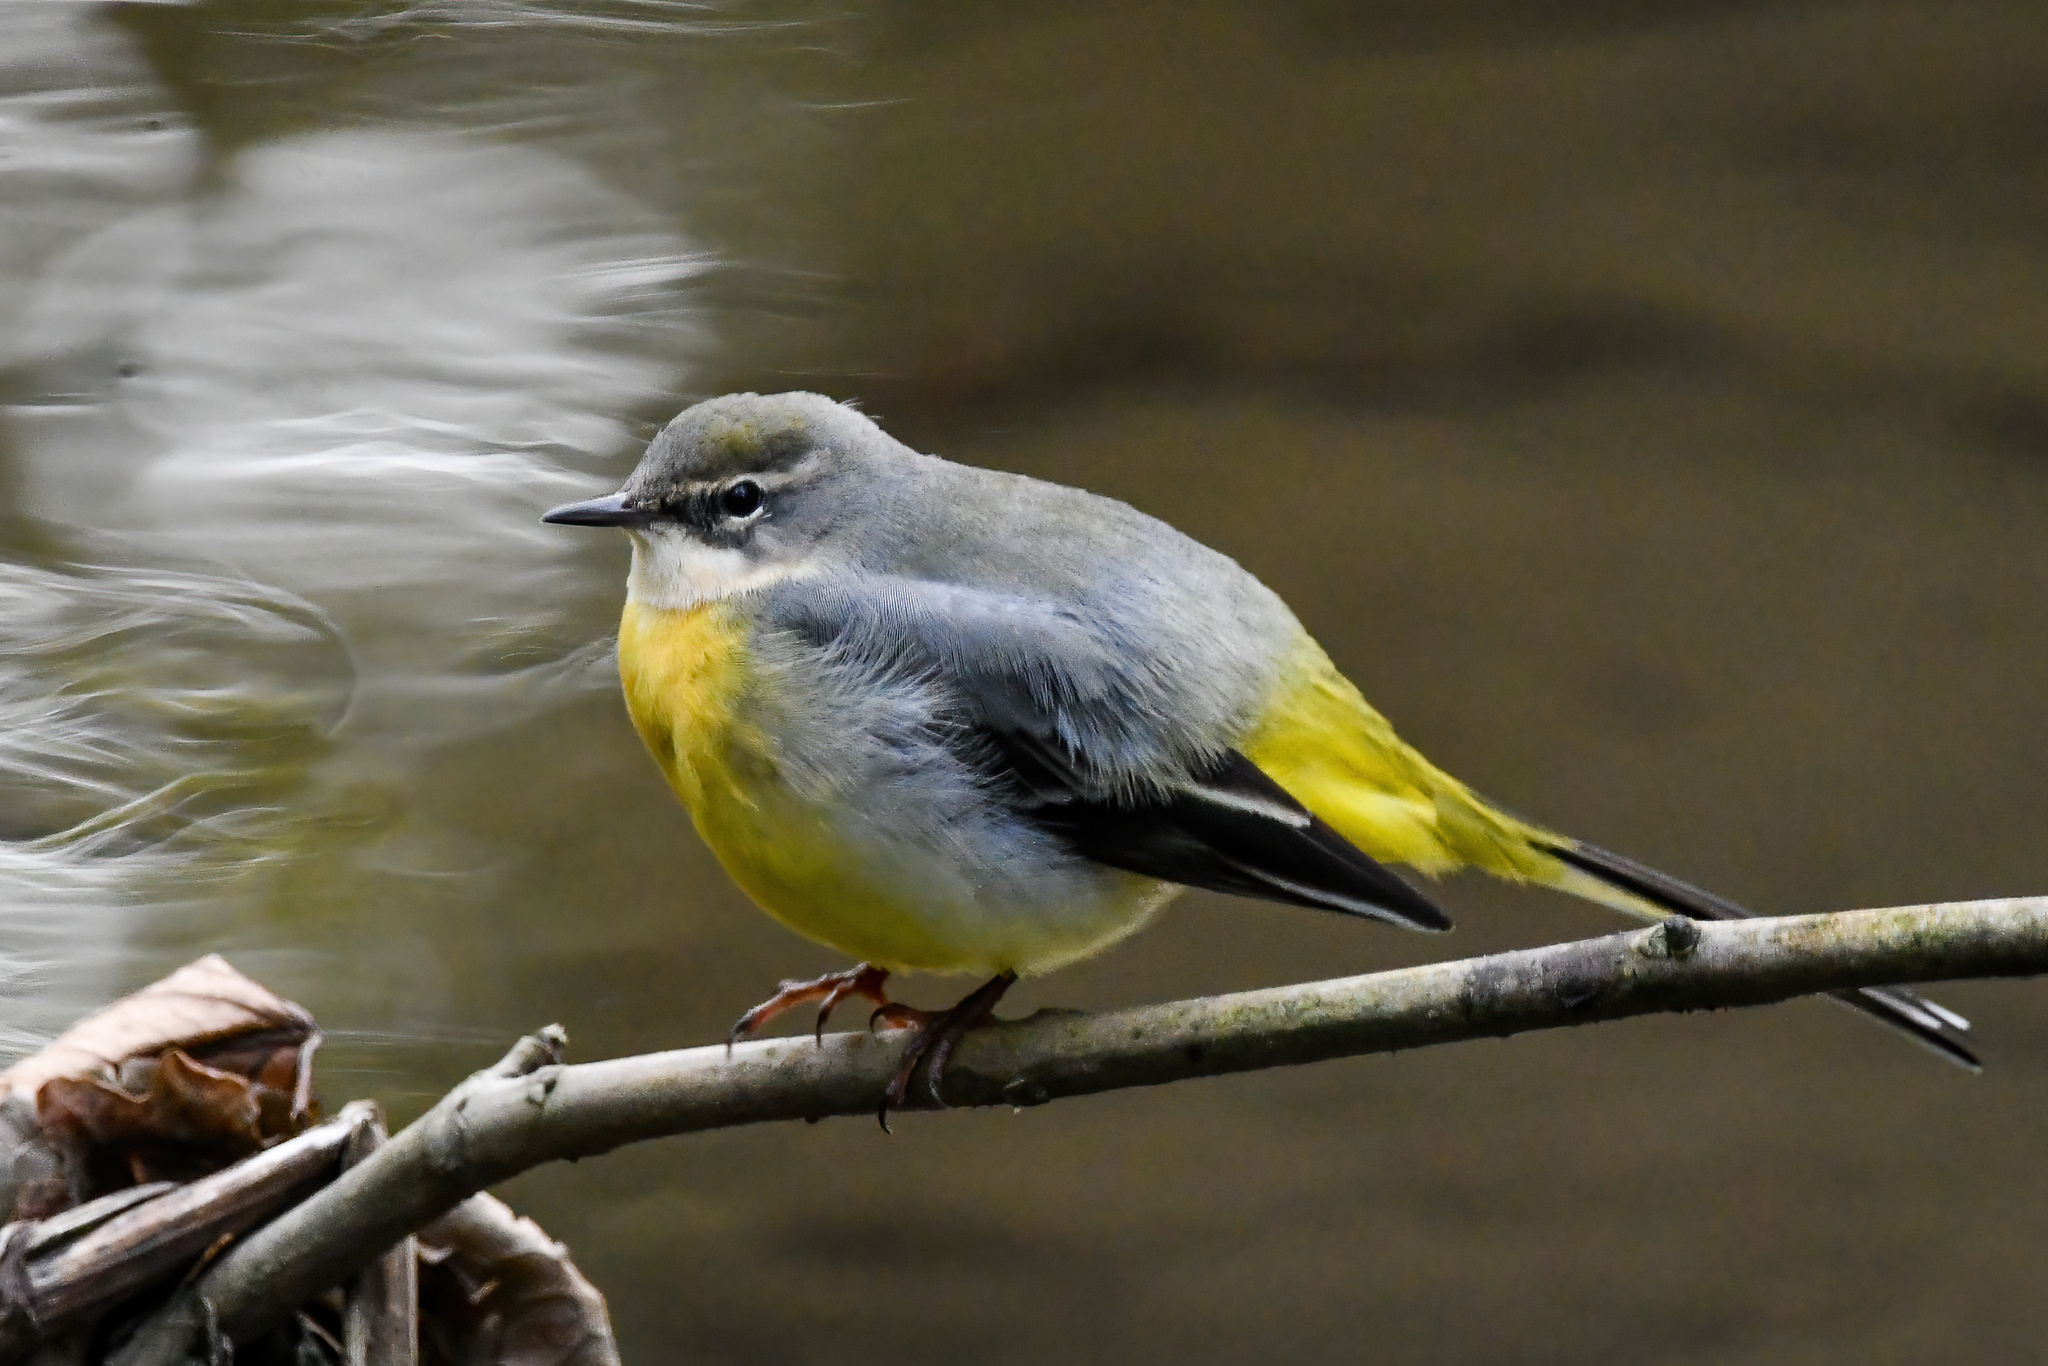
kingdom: Animalia
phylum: Chordata
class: Aves
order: Passeriformes
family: Motacillidae
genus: Motacilla
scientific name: Motacilla cinerea
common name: Grey wagtail
